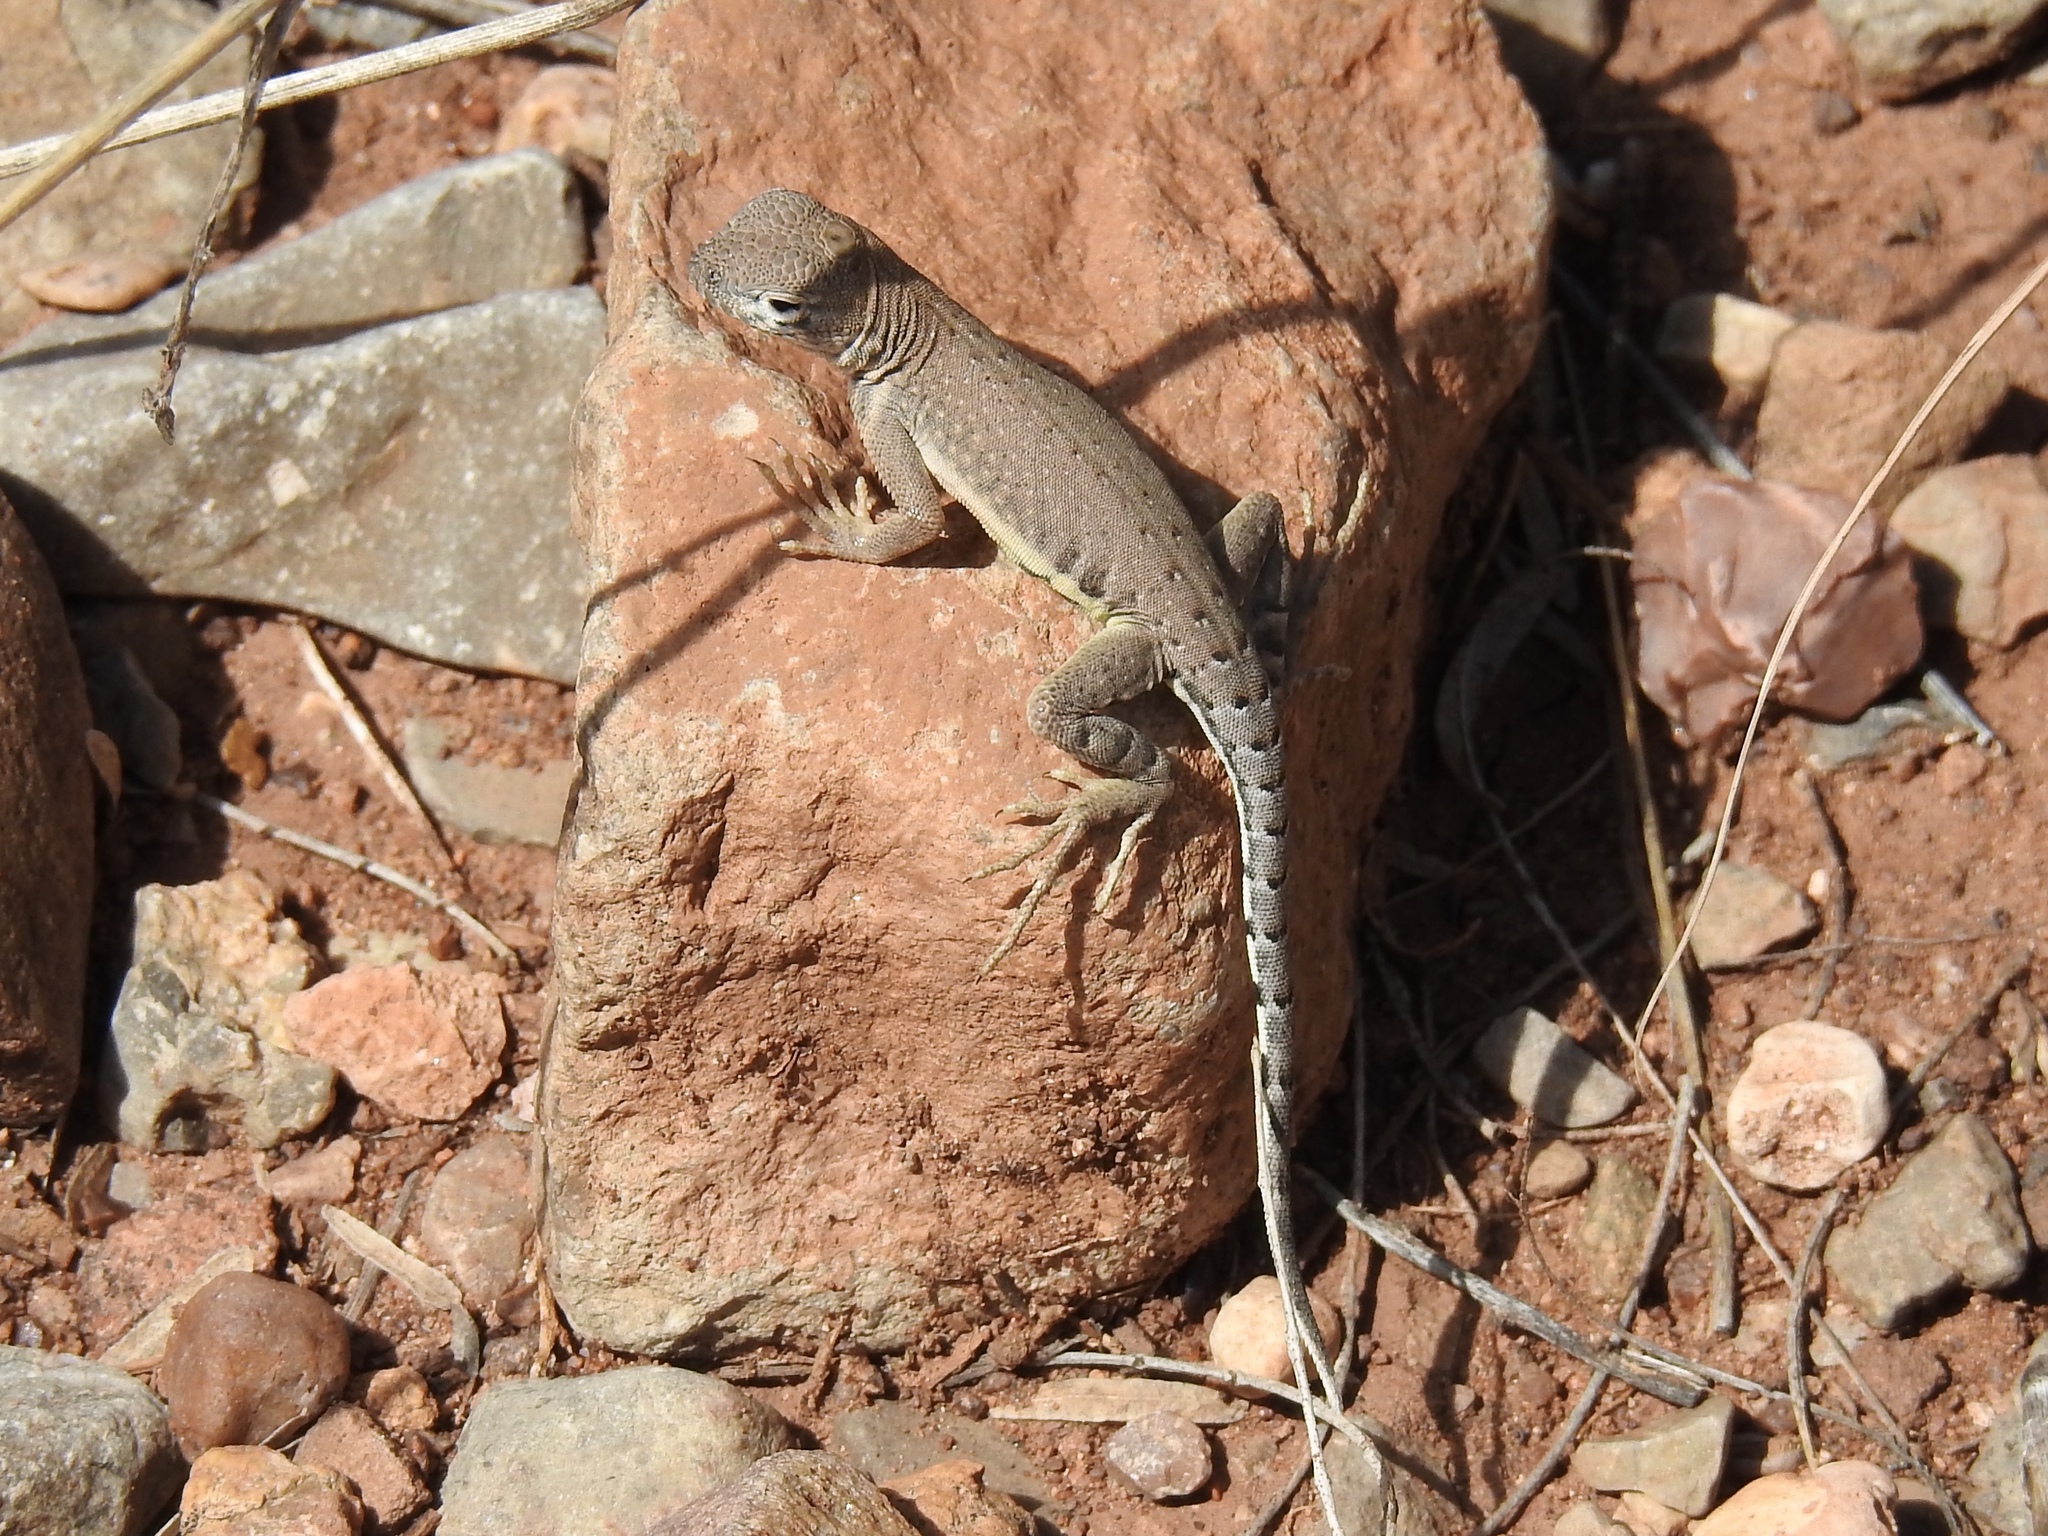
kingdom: Animalia
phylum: Chordata
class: Squamata
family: Phrynosomatidae
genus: Cophosaurus
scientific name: Cophosaurus texanus
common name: Greater earless lizard
